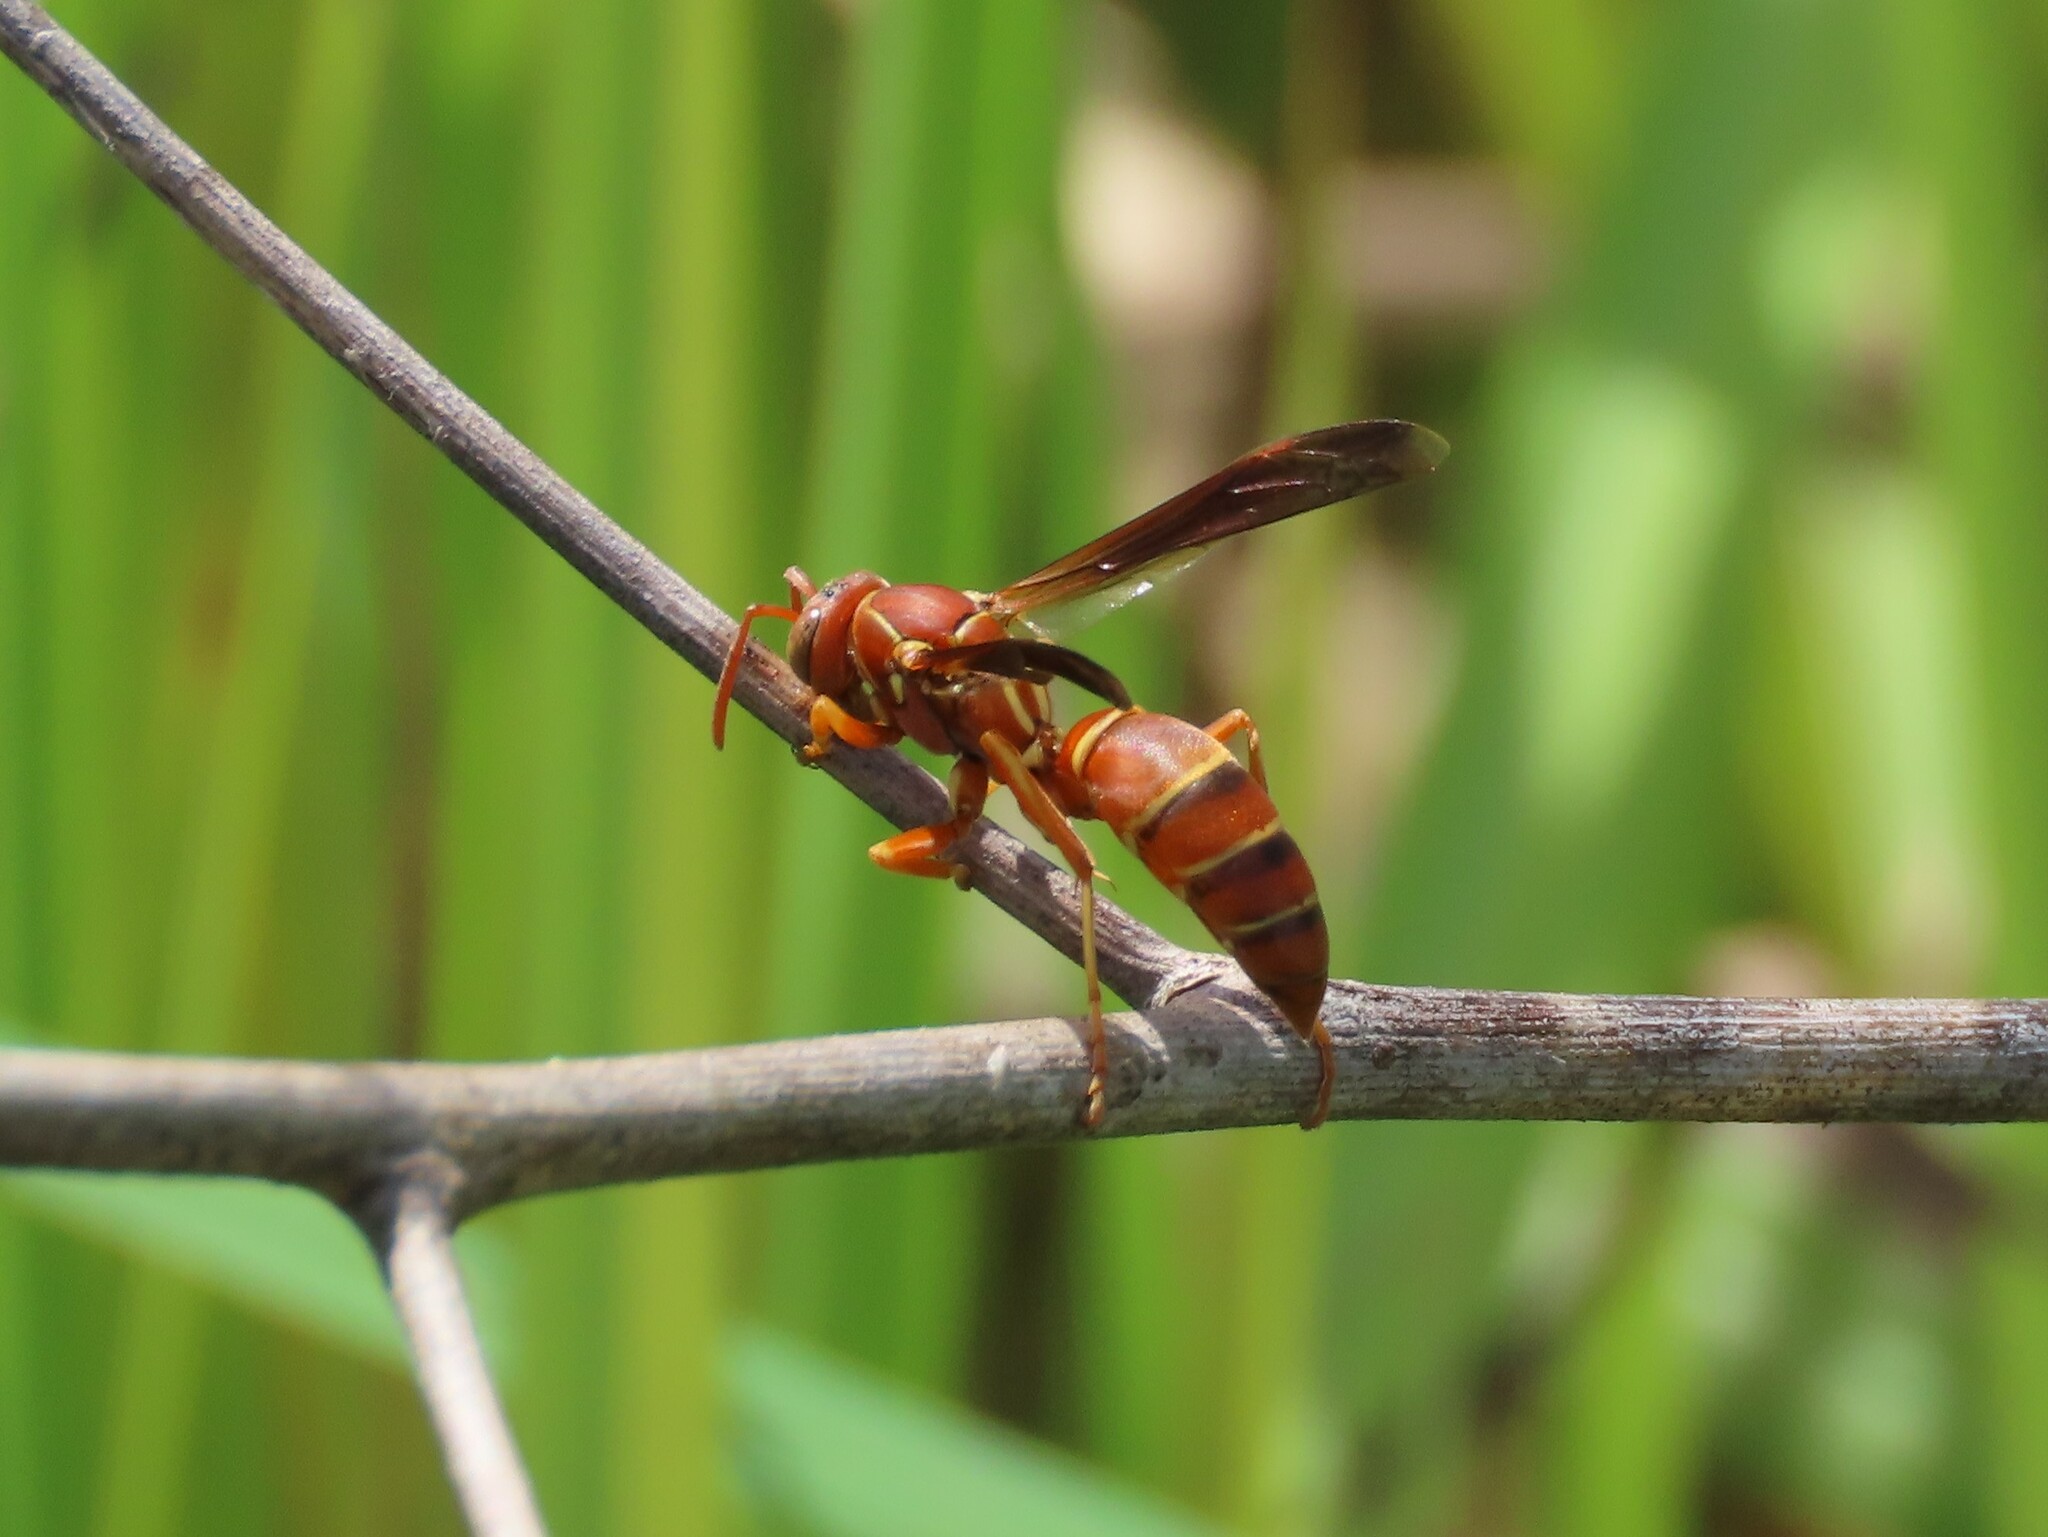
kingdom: Animalia
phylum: Arthropoda
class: Insecta
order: Hymenoptera
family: Eumenidae
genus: Polistes
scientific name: Polistes bellicosus
